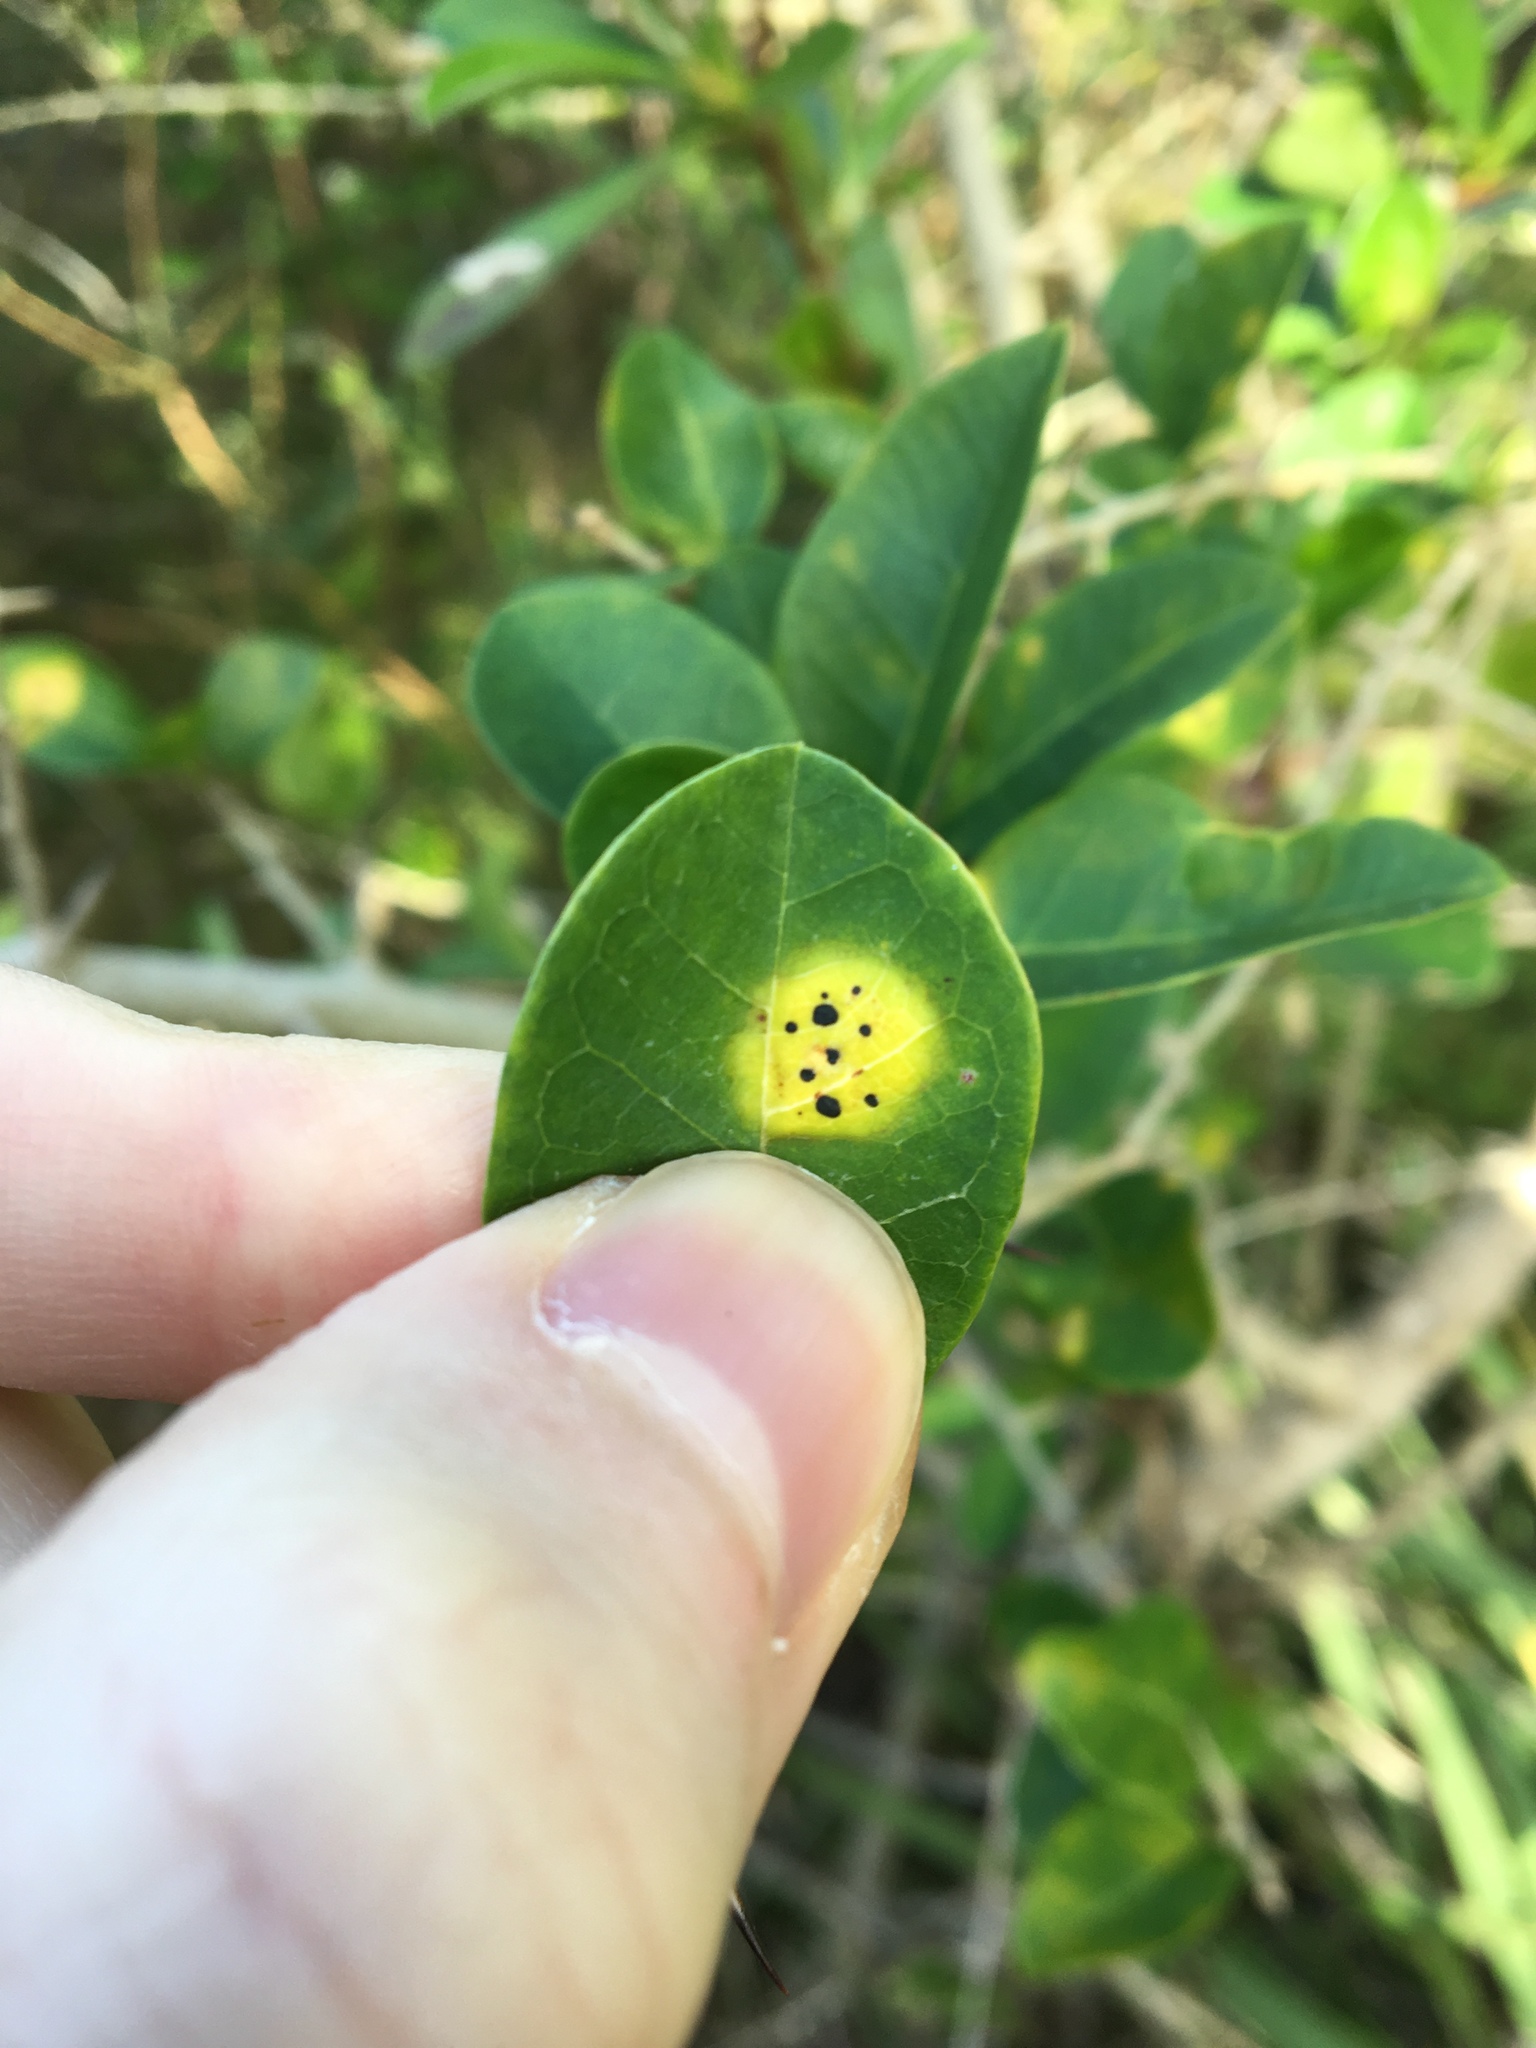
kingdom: Fungi
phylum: Ascomycota
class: Dothideomycetes
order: Mycosphaerellales
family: Mycosphaerellaceae
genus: Zasmidium
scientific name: Zasmidium macluricola
